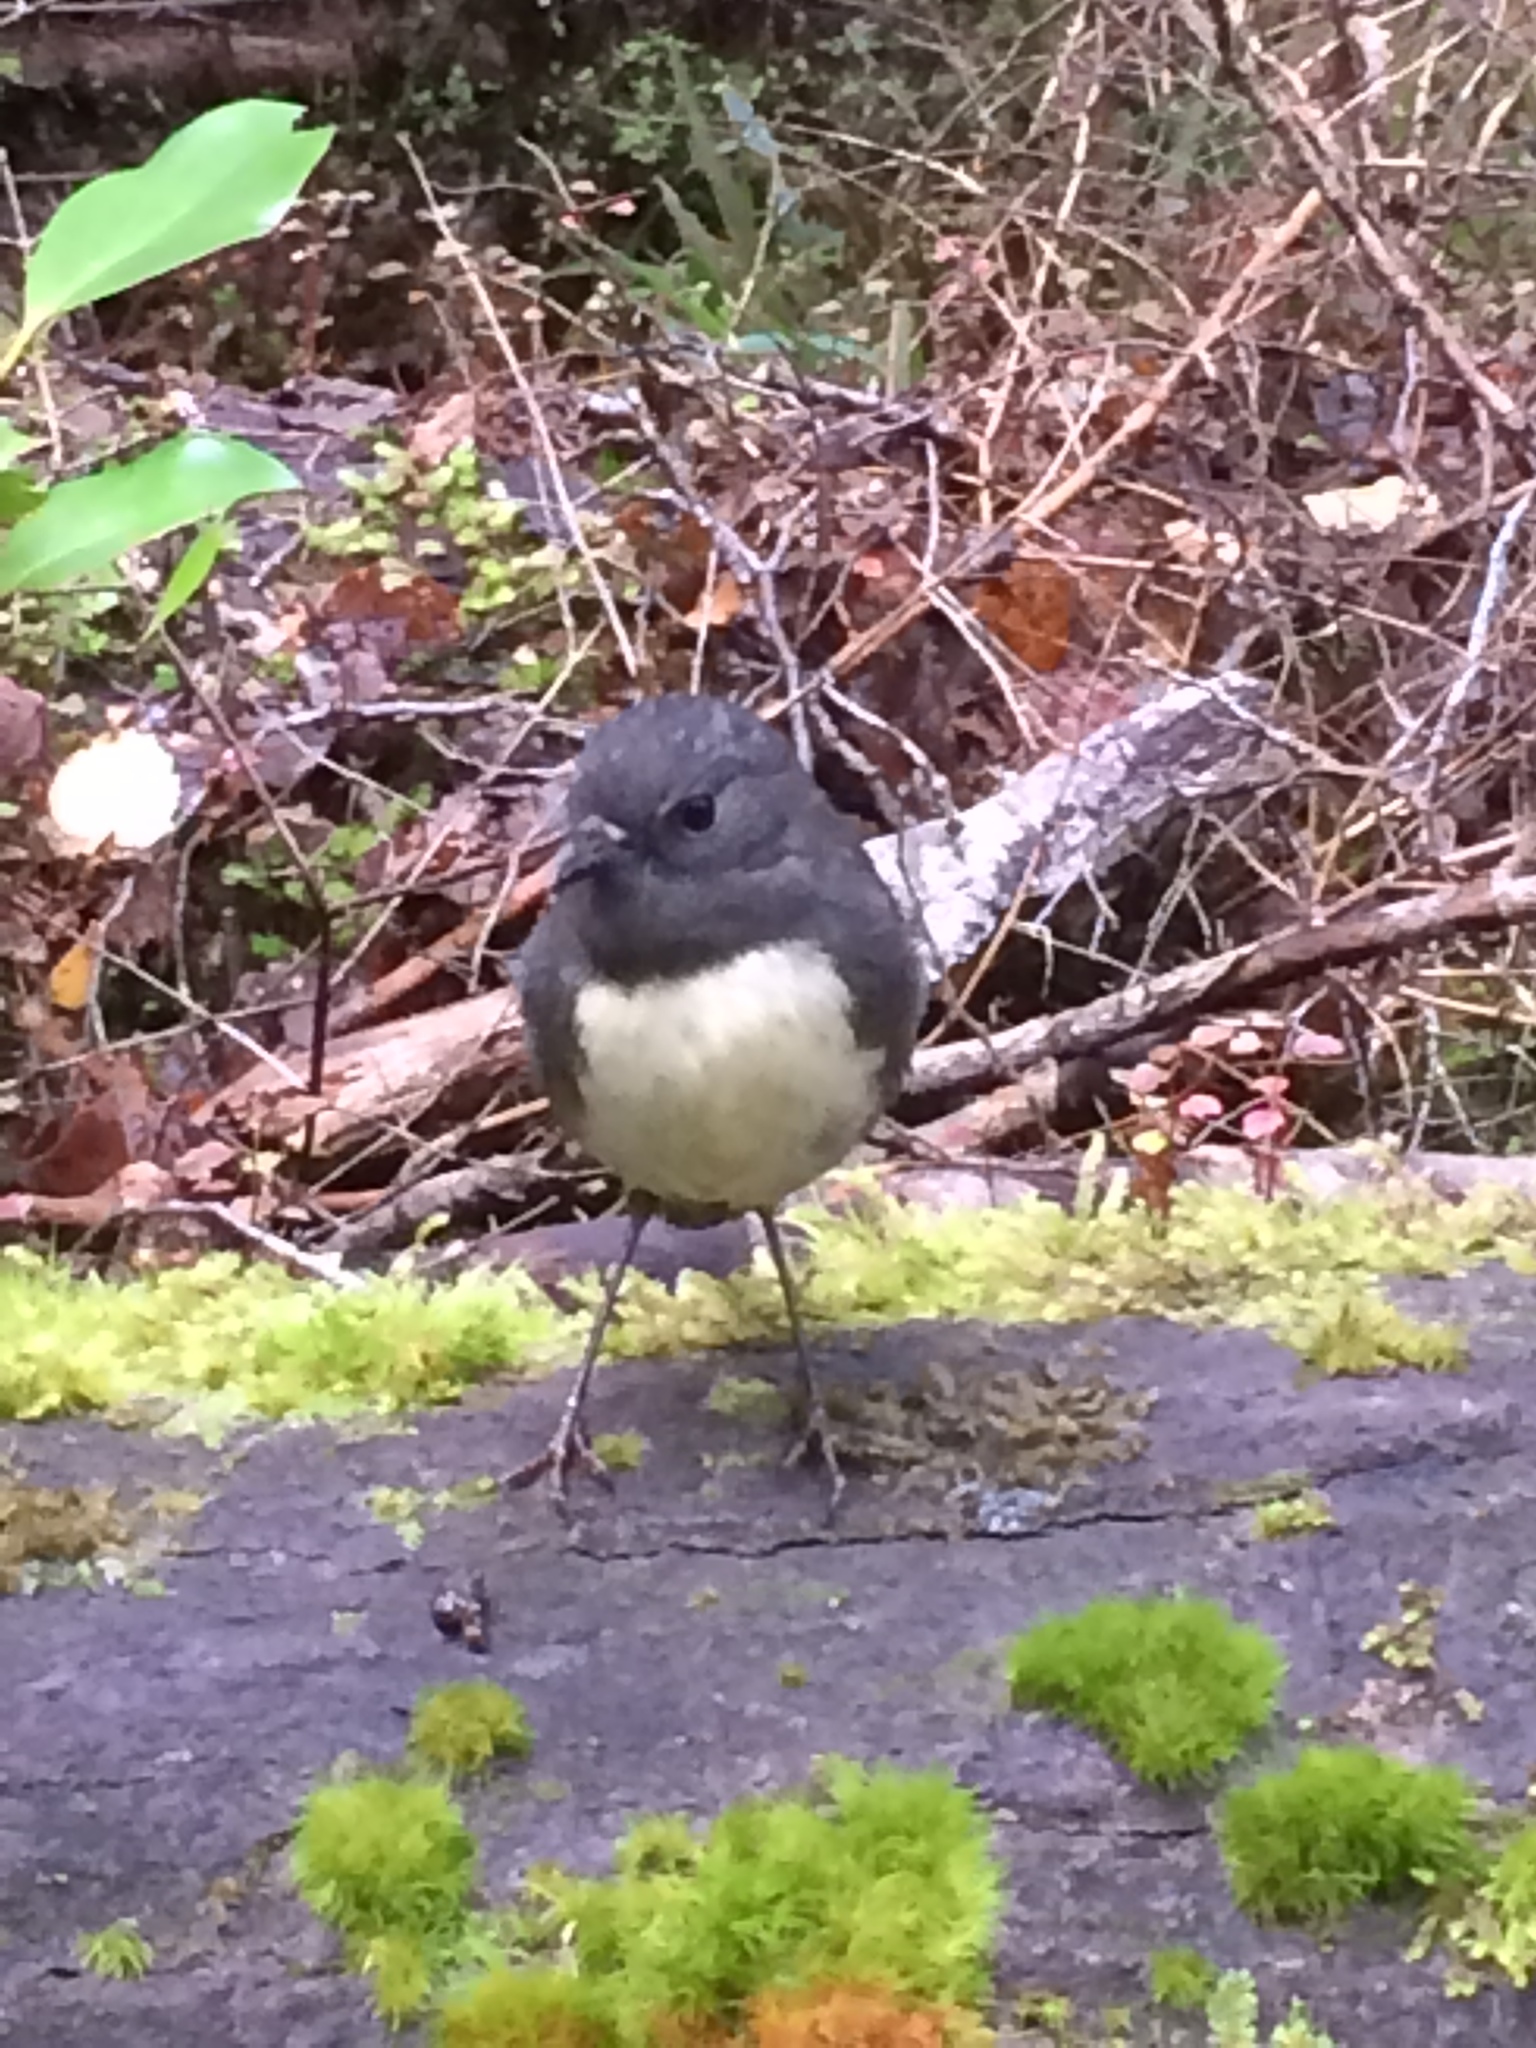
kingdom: Animalia
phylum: Chordata
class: Aves
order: Passeriformes
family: Petroicidae
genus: Petroica
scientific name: Petroica australis
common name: New zealand robin
